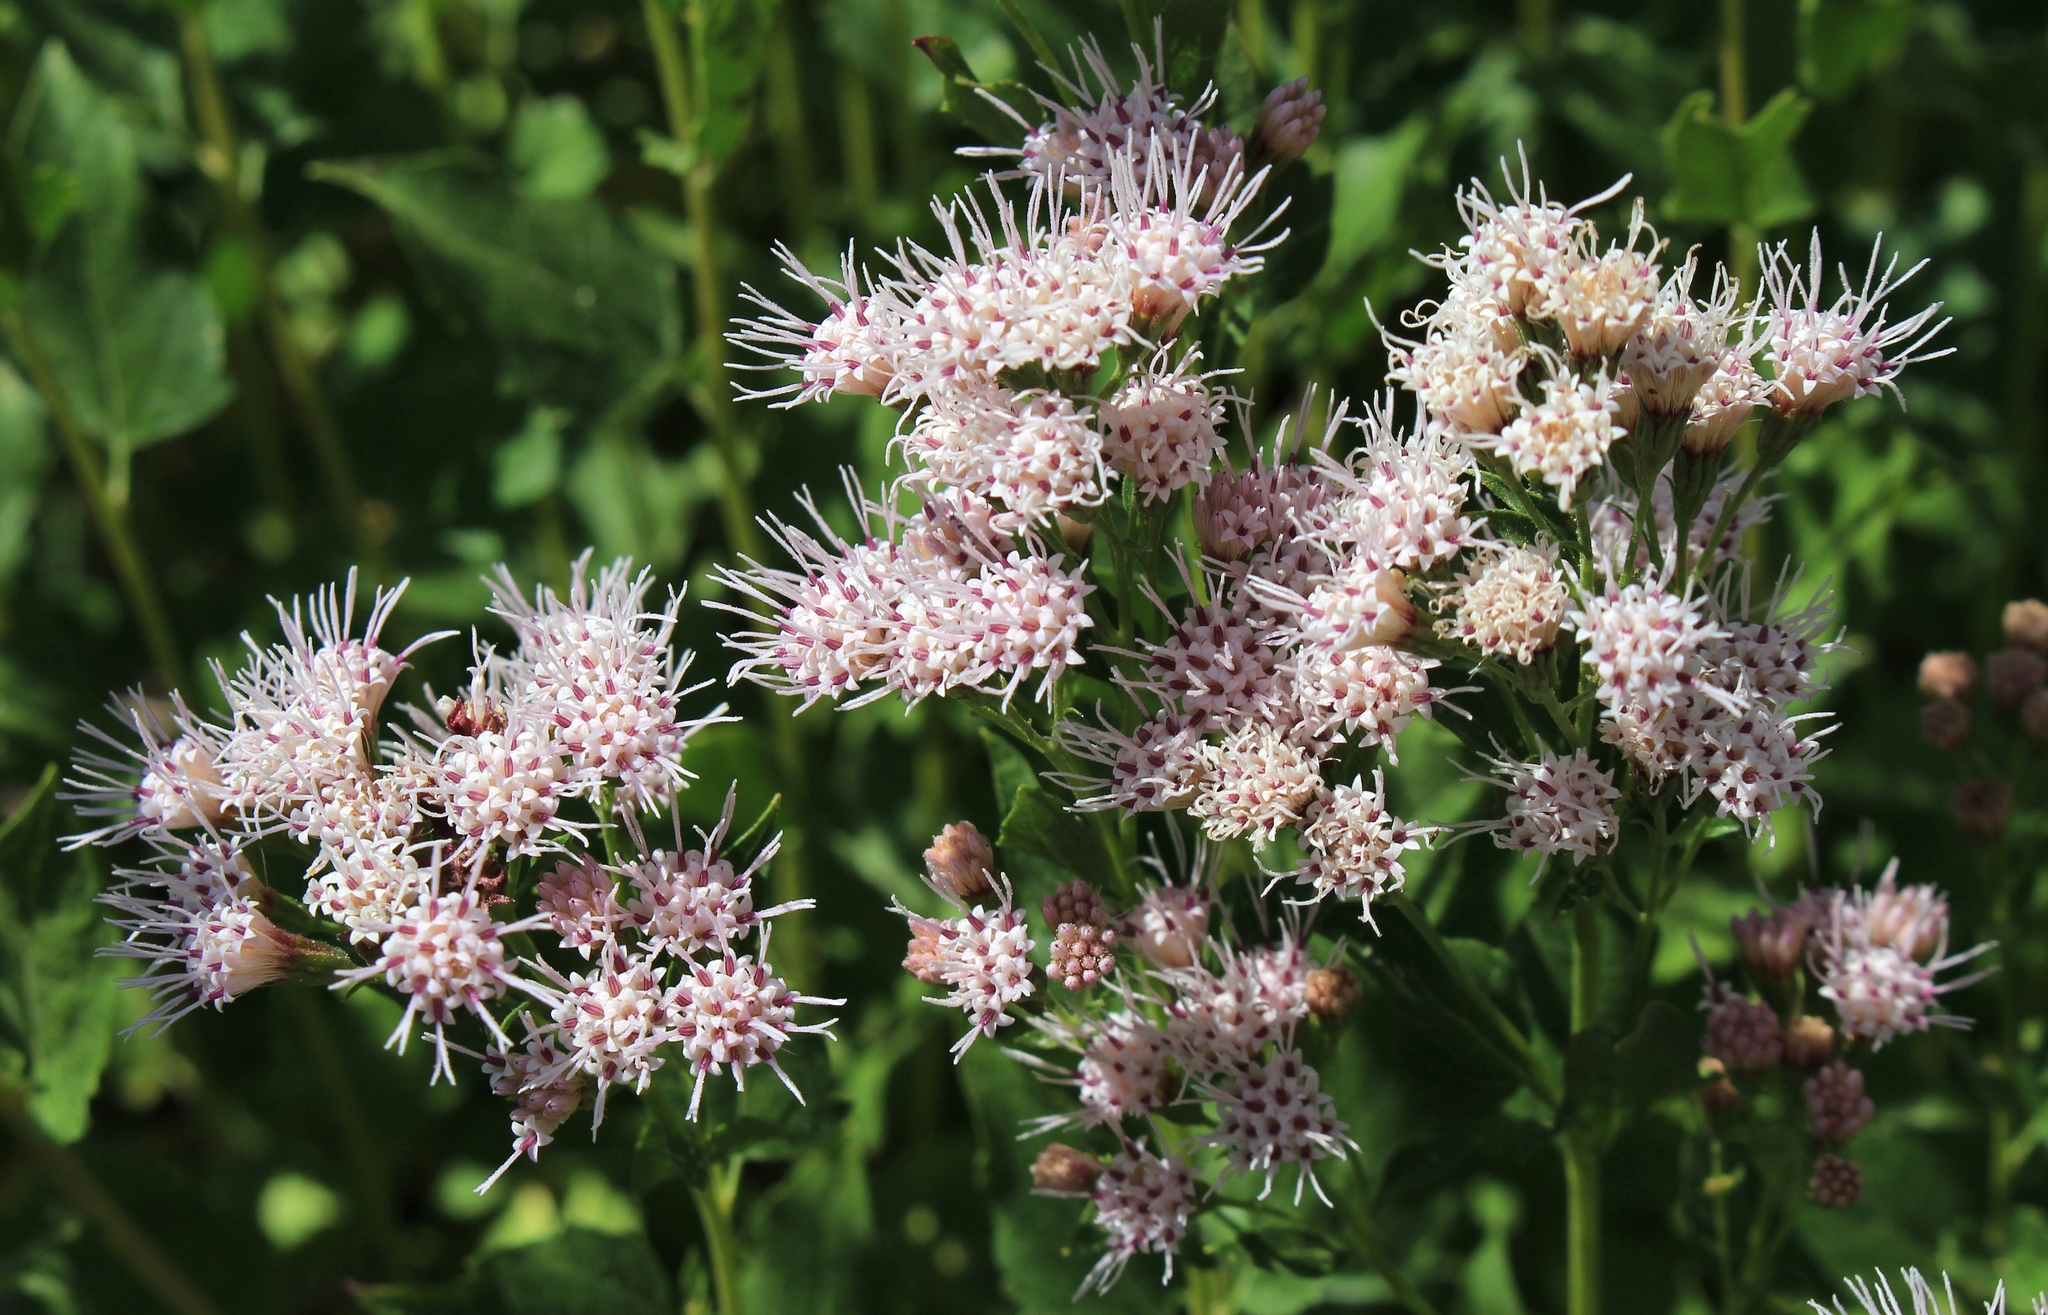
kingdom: Plantae
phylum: Tracheophyta
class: Magnoliopsida
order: Asterales
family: Asteraceae
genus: Ageratina
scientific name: Ageratina occidentalis
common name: Western snakeroot
